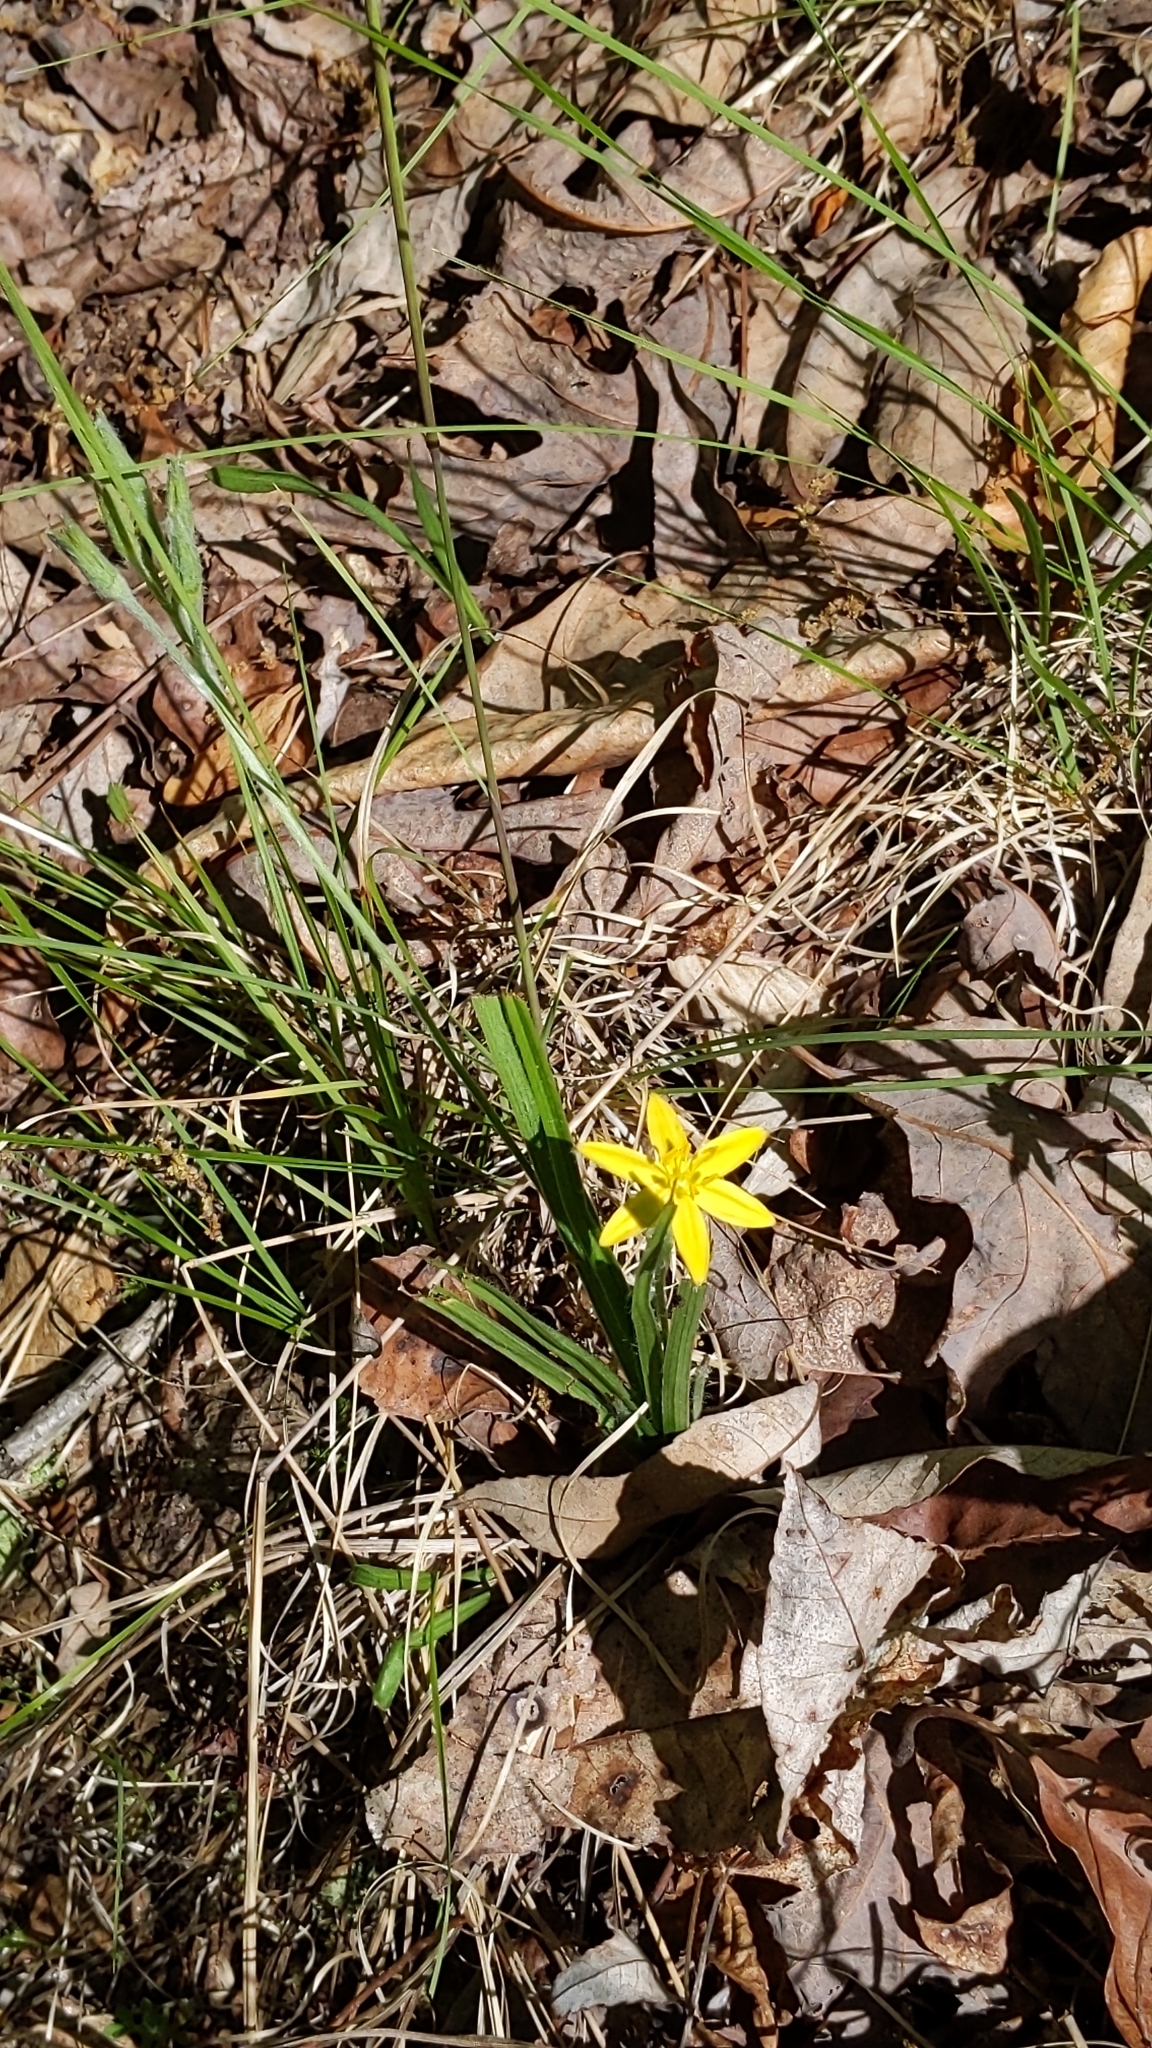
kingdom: Plantae
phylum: Tracheophyta
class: Liliopsida
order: Asparagales
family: Hypoxidaceae
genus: Hypoxis
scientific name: Hypoxis hirsuta
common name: Common goldstar
